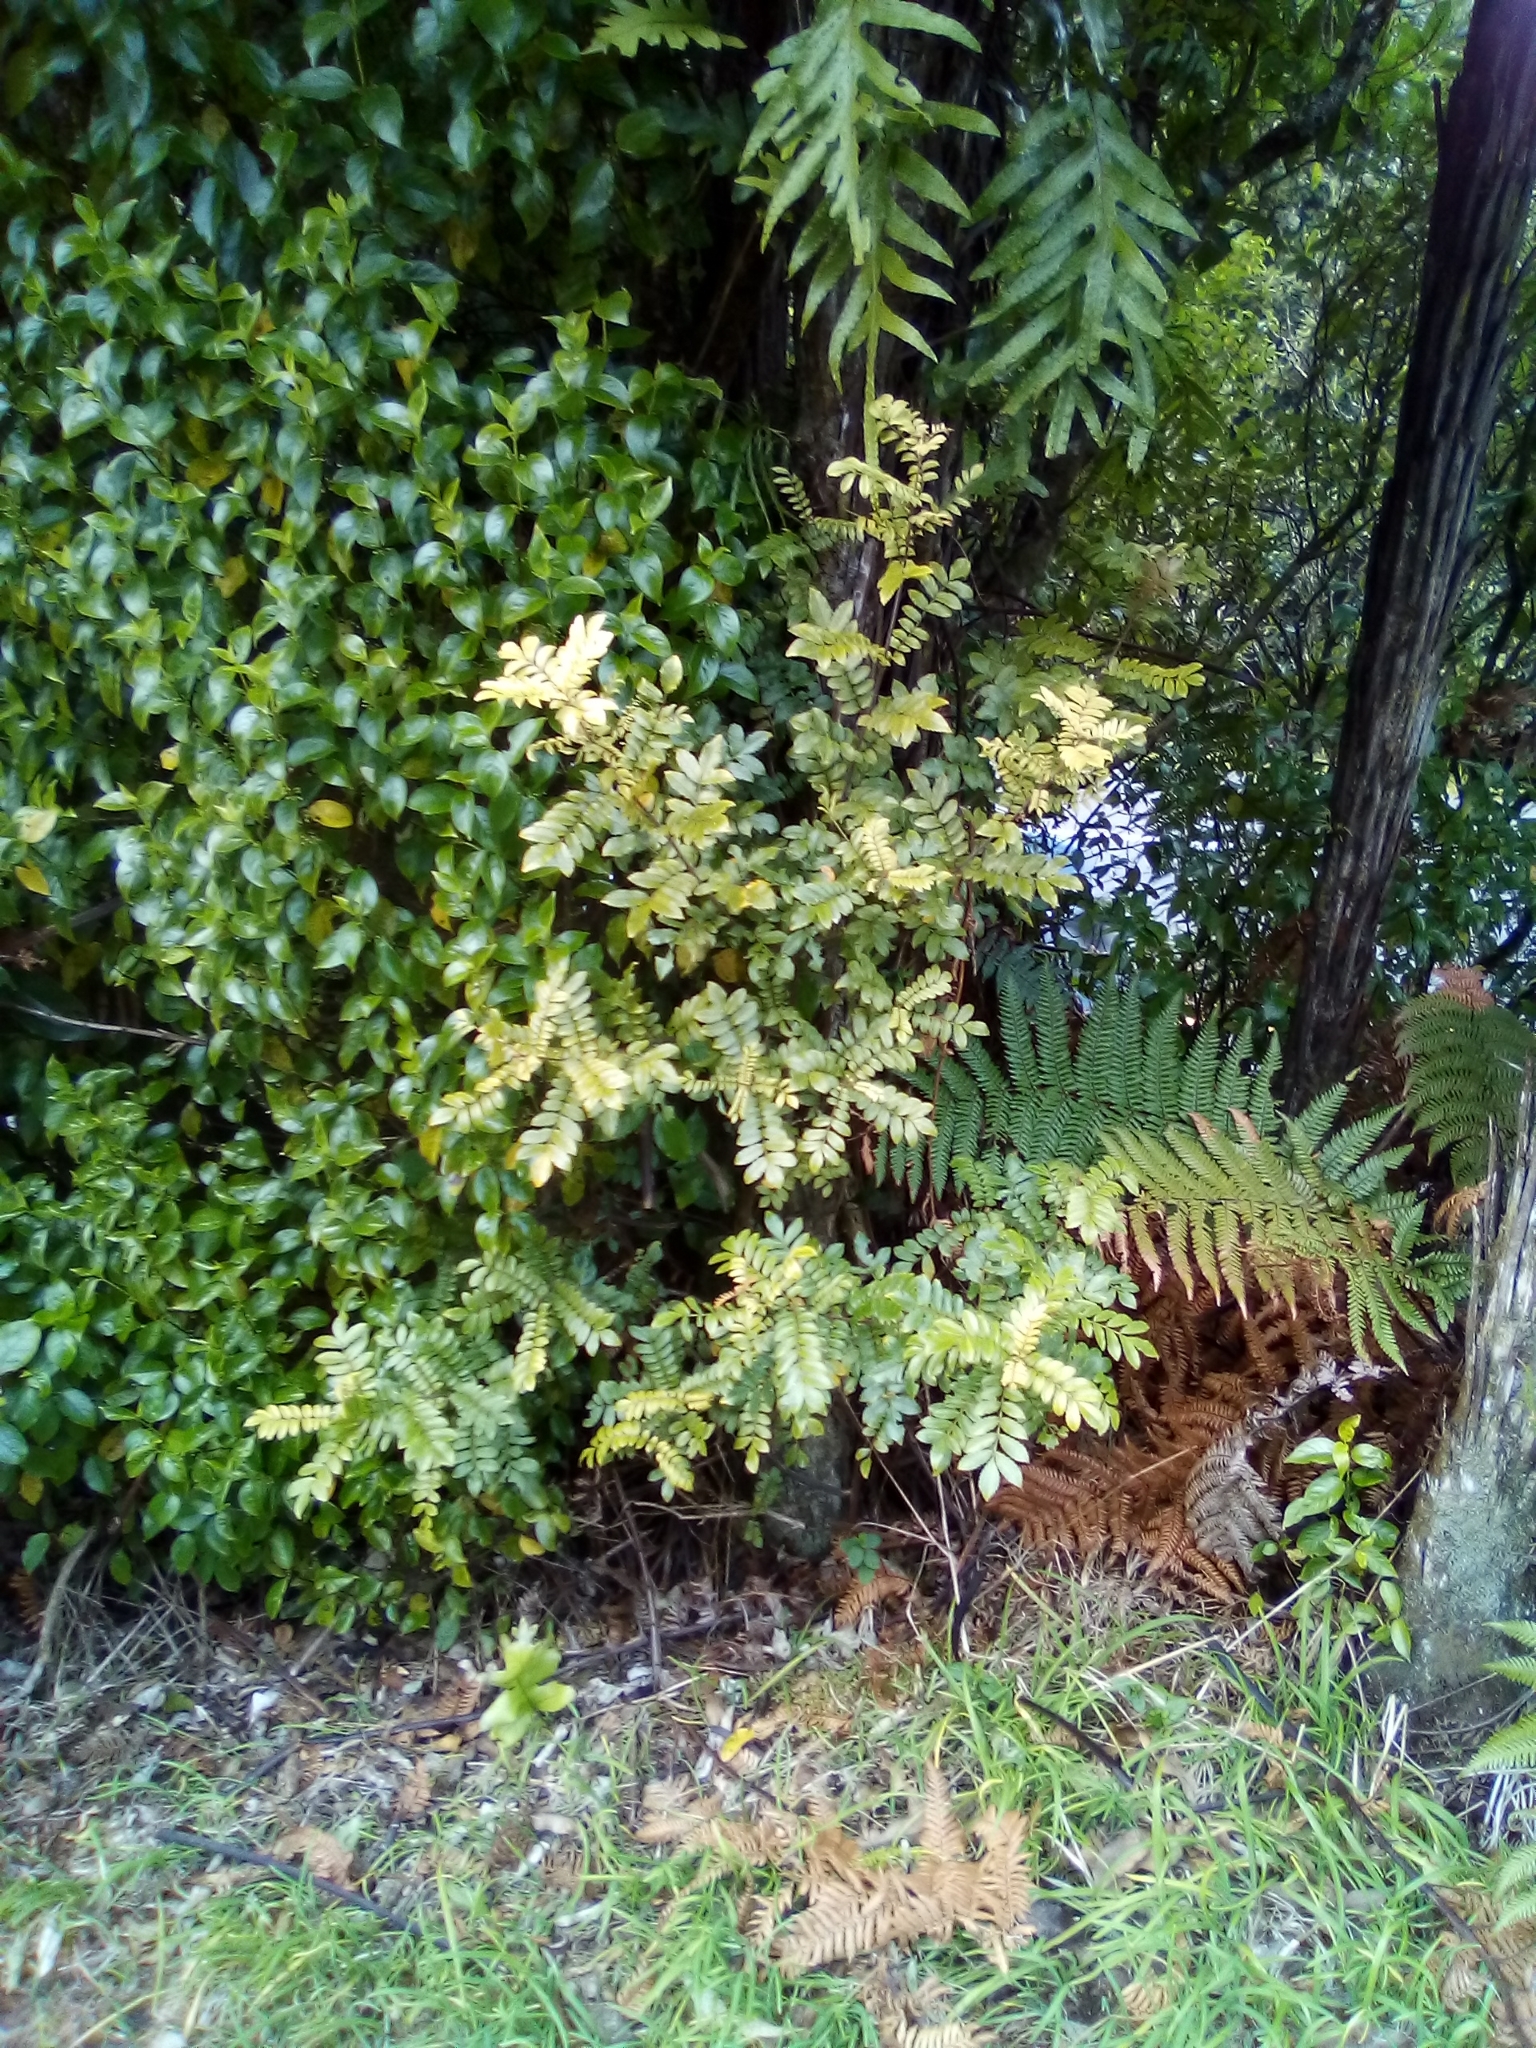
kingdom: Plantae
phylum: Tracheophyta
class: Magnoliopsida
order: Oxalidales
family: Cunoniaceae
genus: Pterophylla
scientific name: Pterophylla sylvicola
